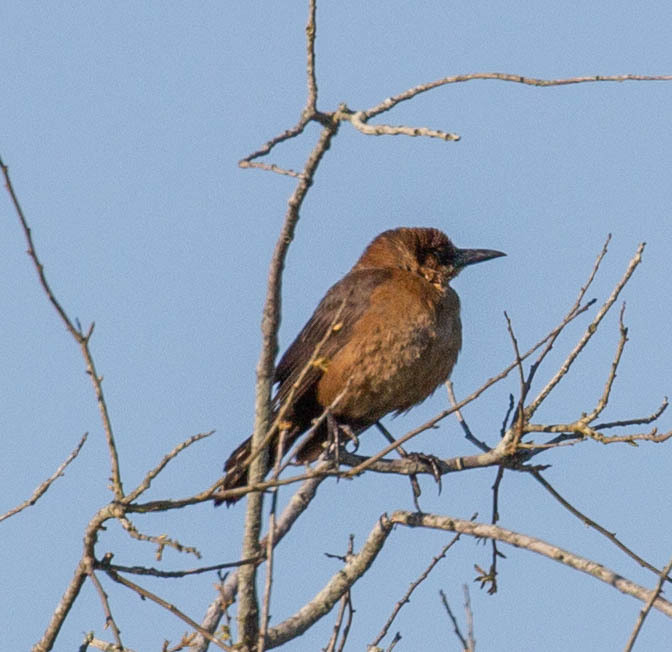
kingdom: Animalia
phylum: Chordata
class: Aves
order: Passeriformes
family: Icteridae
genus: Quiscalus
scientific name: Quiscalus major
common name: Boat-tailed grackle
